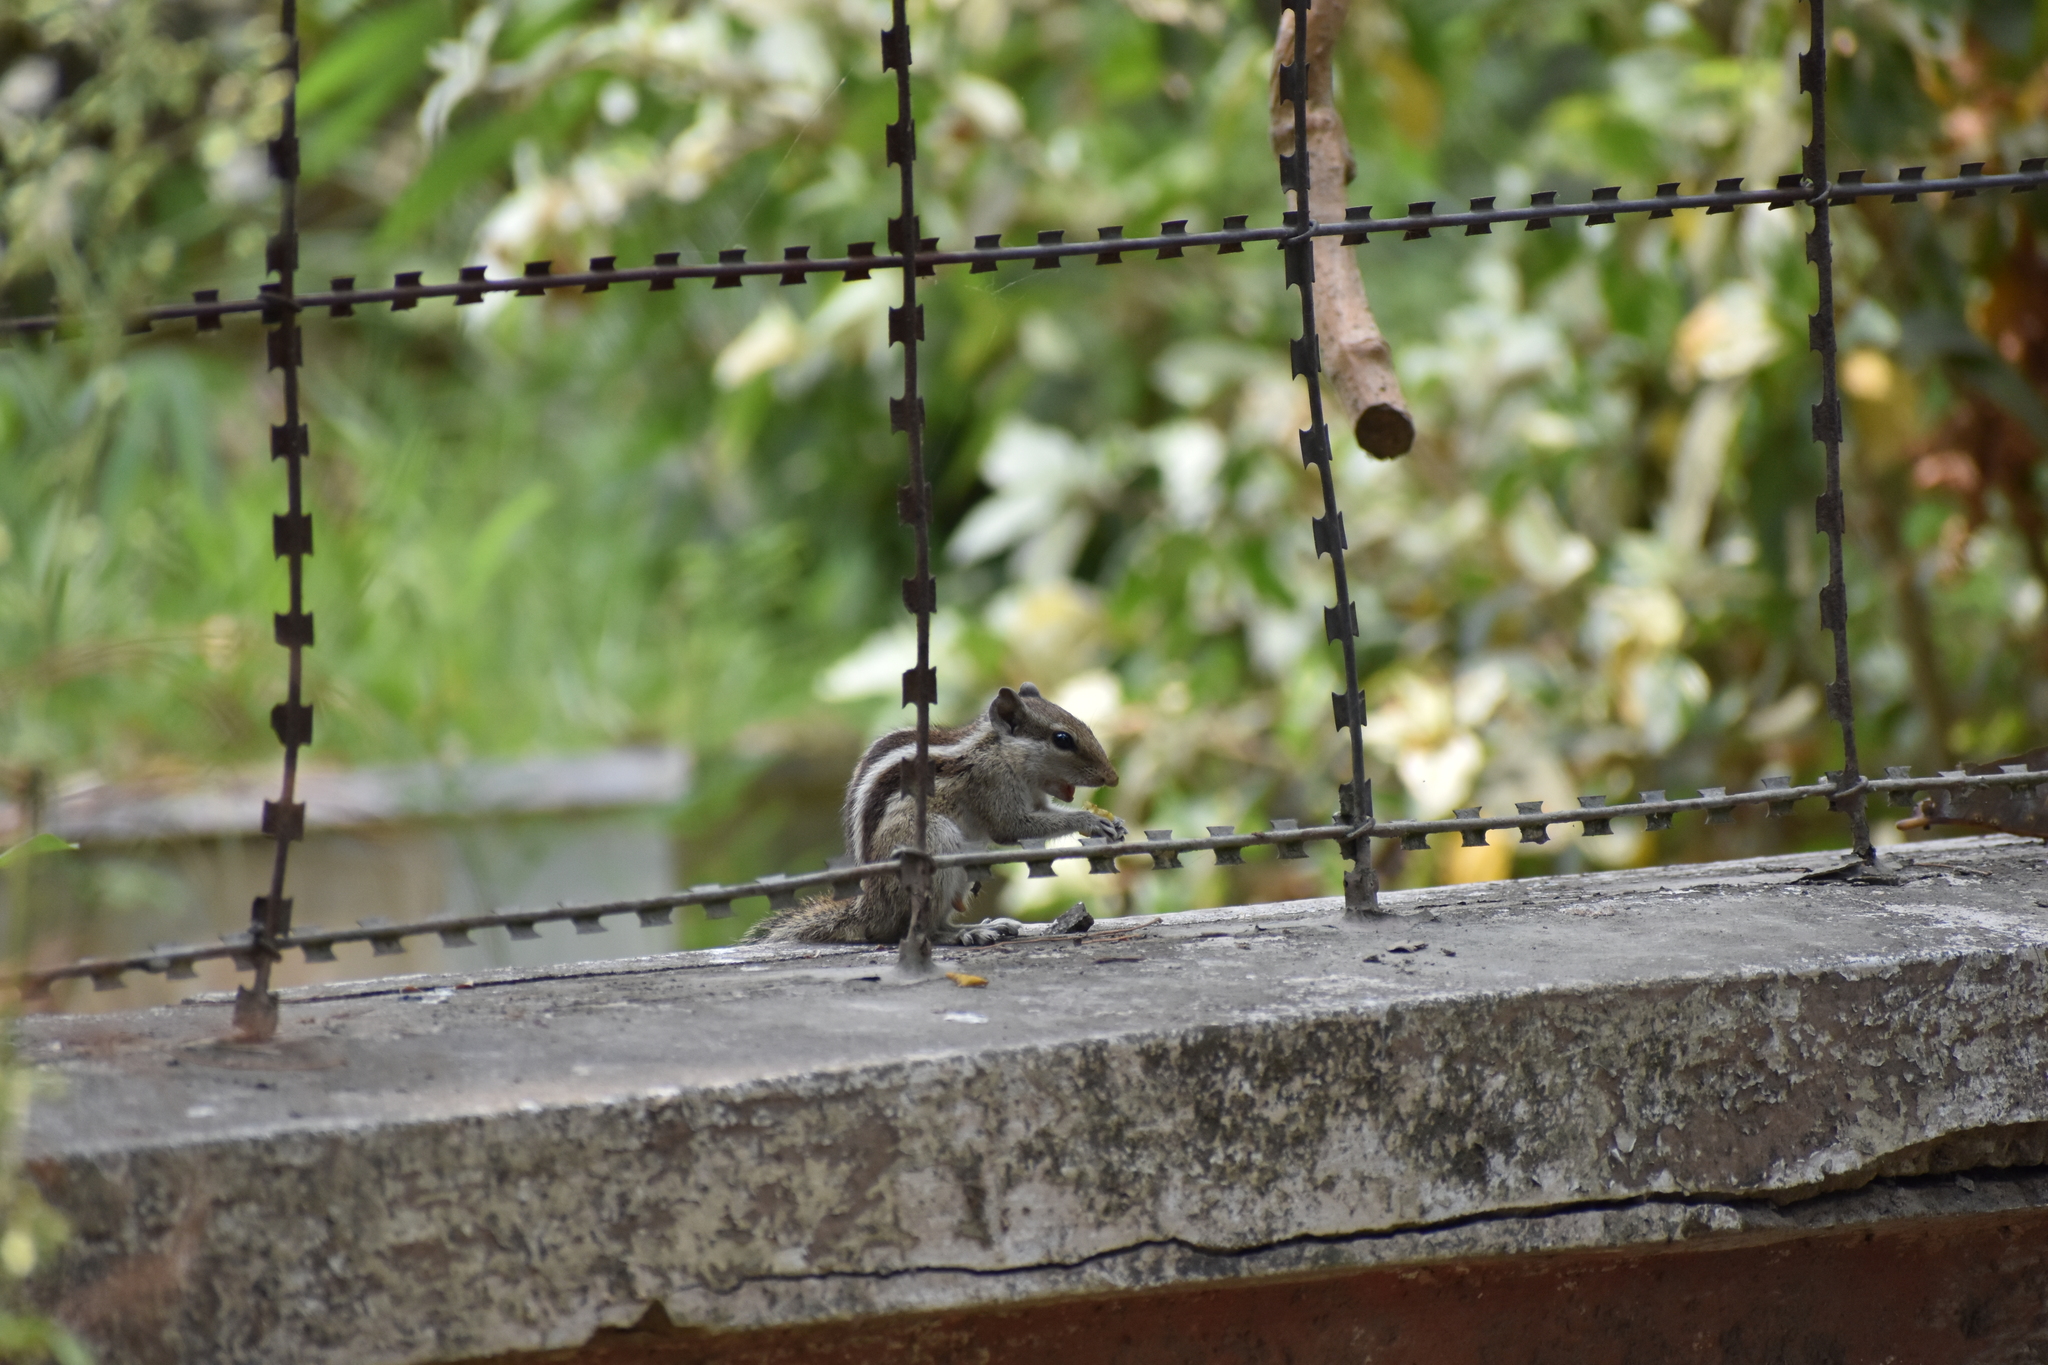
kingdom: Animalia
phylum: Chordata
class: Mammalia
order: Rodentia
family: Sciuridae
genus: Funambulus
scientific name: Funambulus pennantii
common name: Northern palm squirrel
